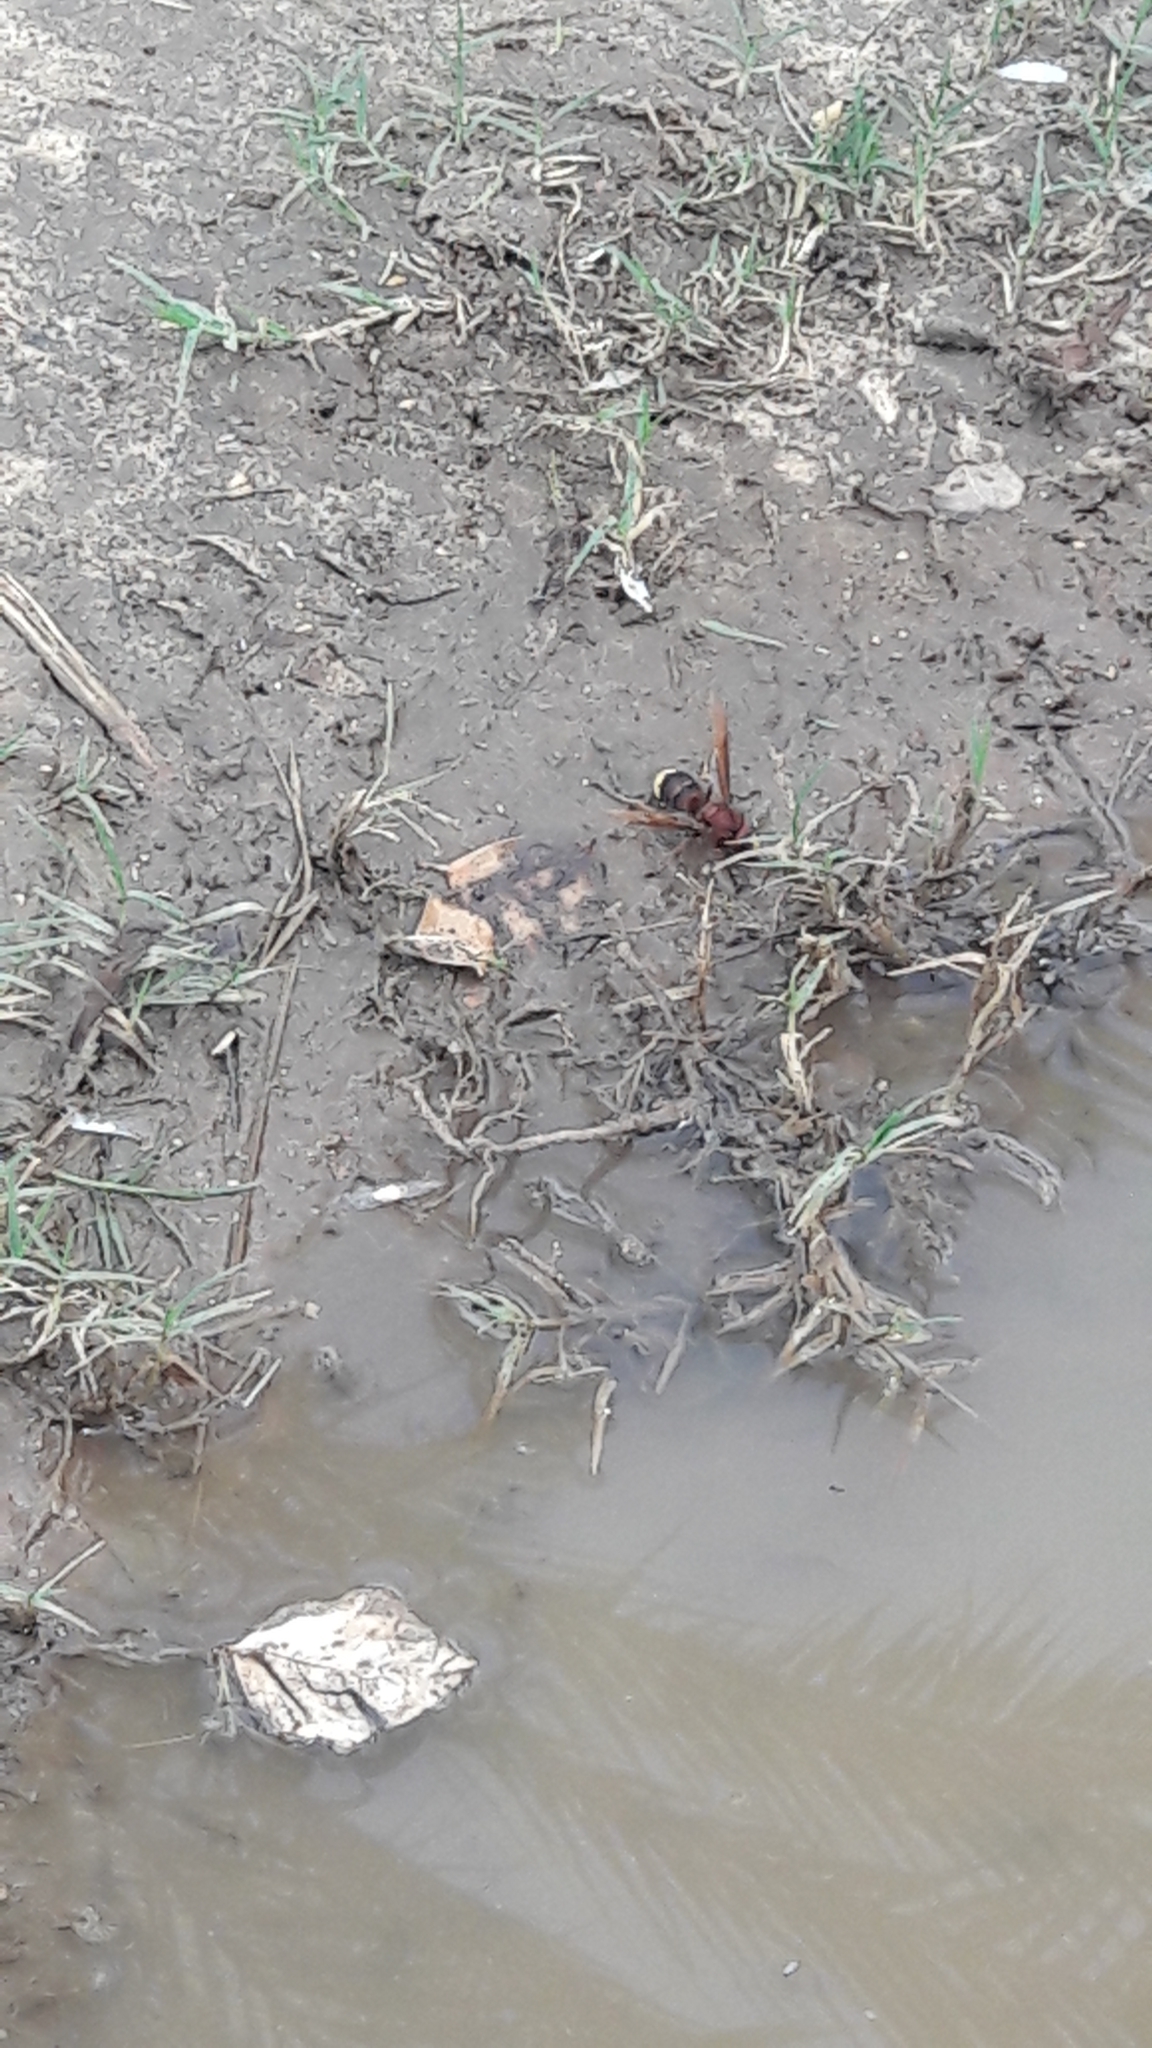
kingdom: Animalia
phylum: Arthropoda
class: Insecta
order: Hymenoptera
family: Vespidae
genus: Vespa
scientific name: Vespa orientalis
